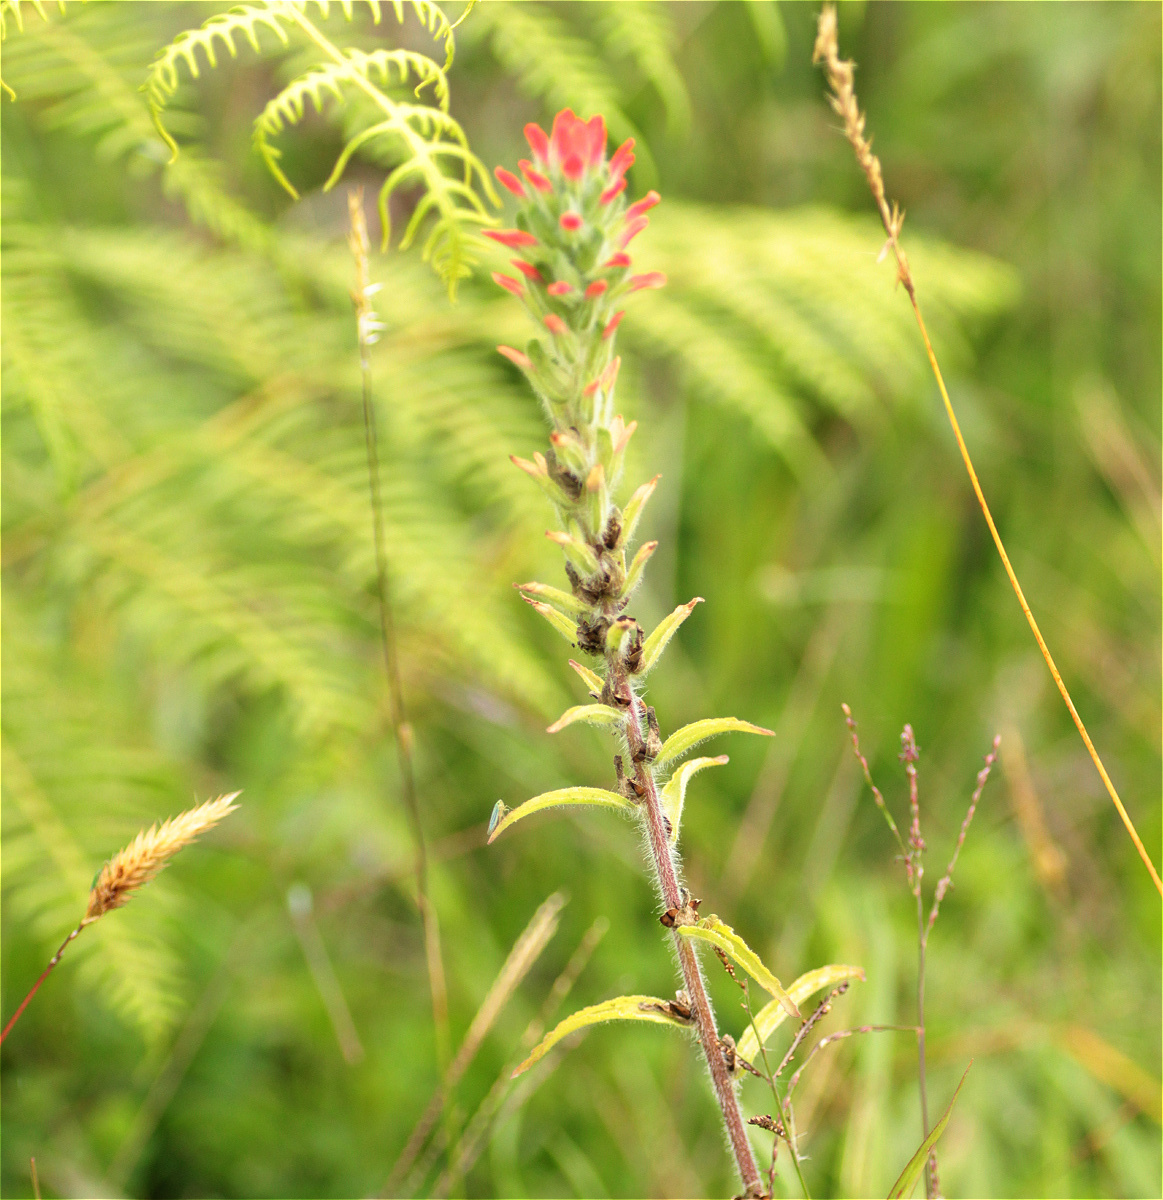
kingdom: Plantae
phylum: Tracheophyta
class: Magnoliopsida
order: Lamiales
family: Orobanchaceae
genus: Castilleja
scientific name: Castilleja arvensis
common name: Indian paintbrush
